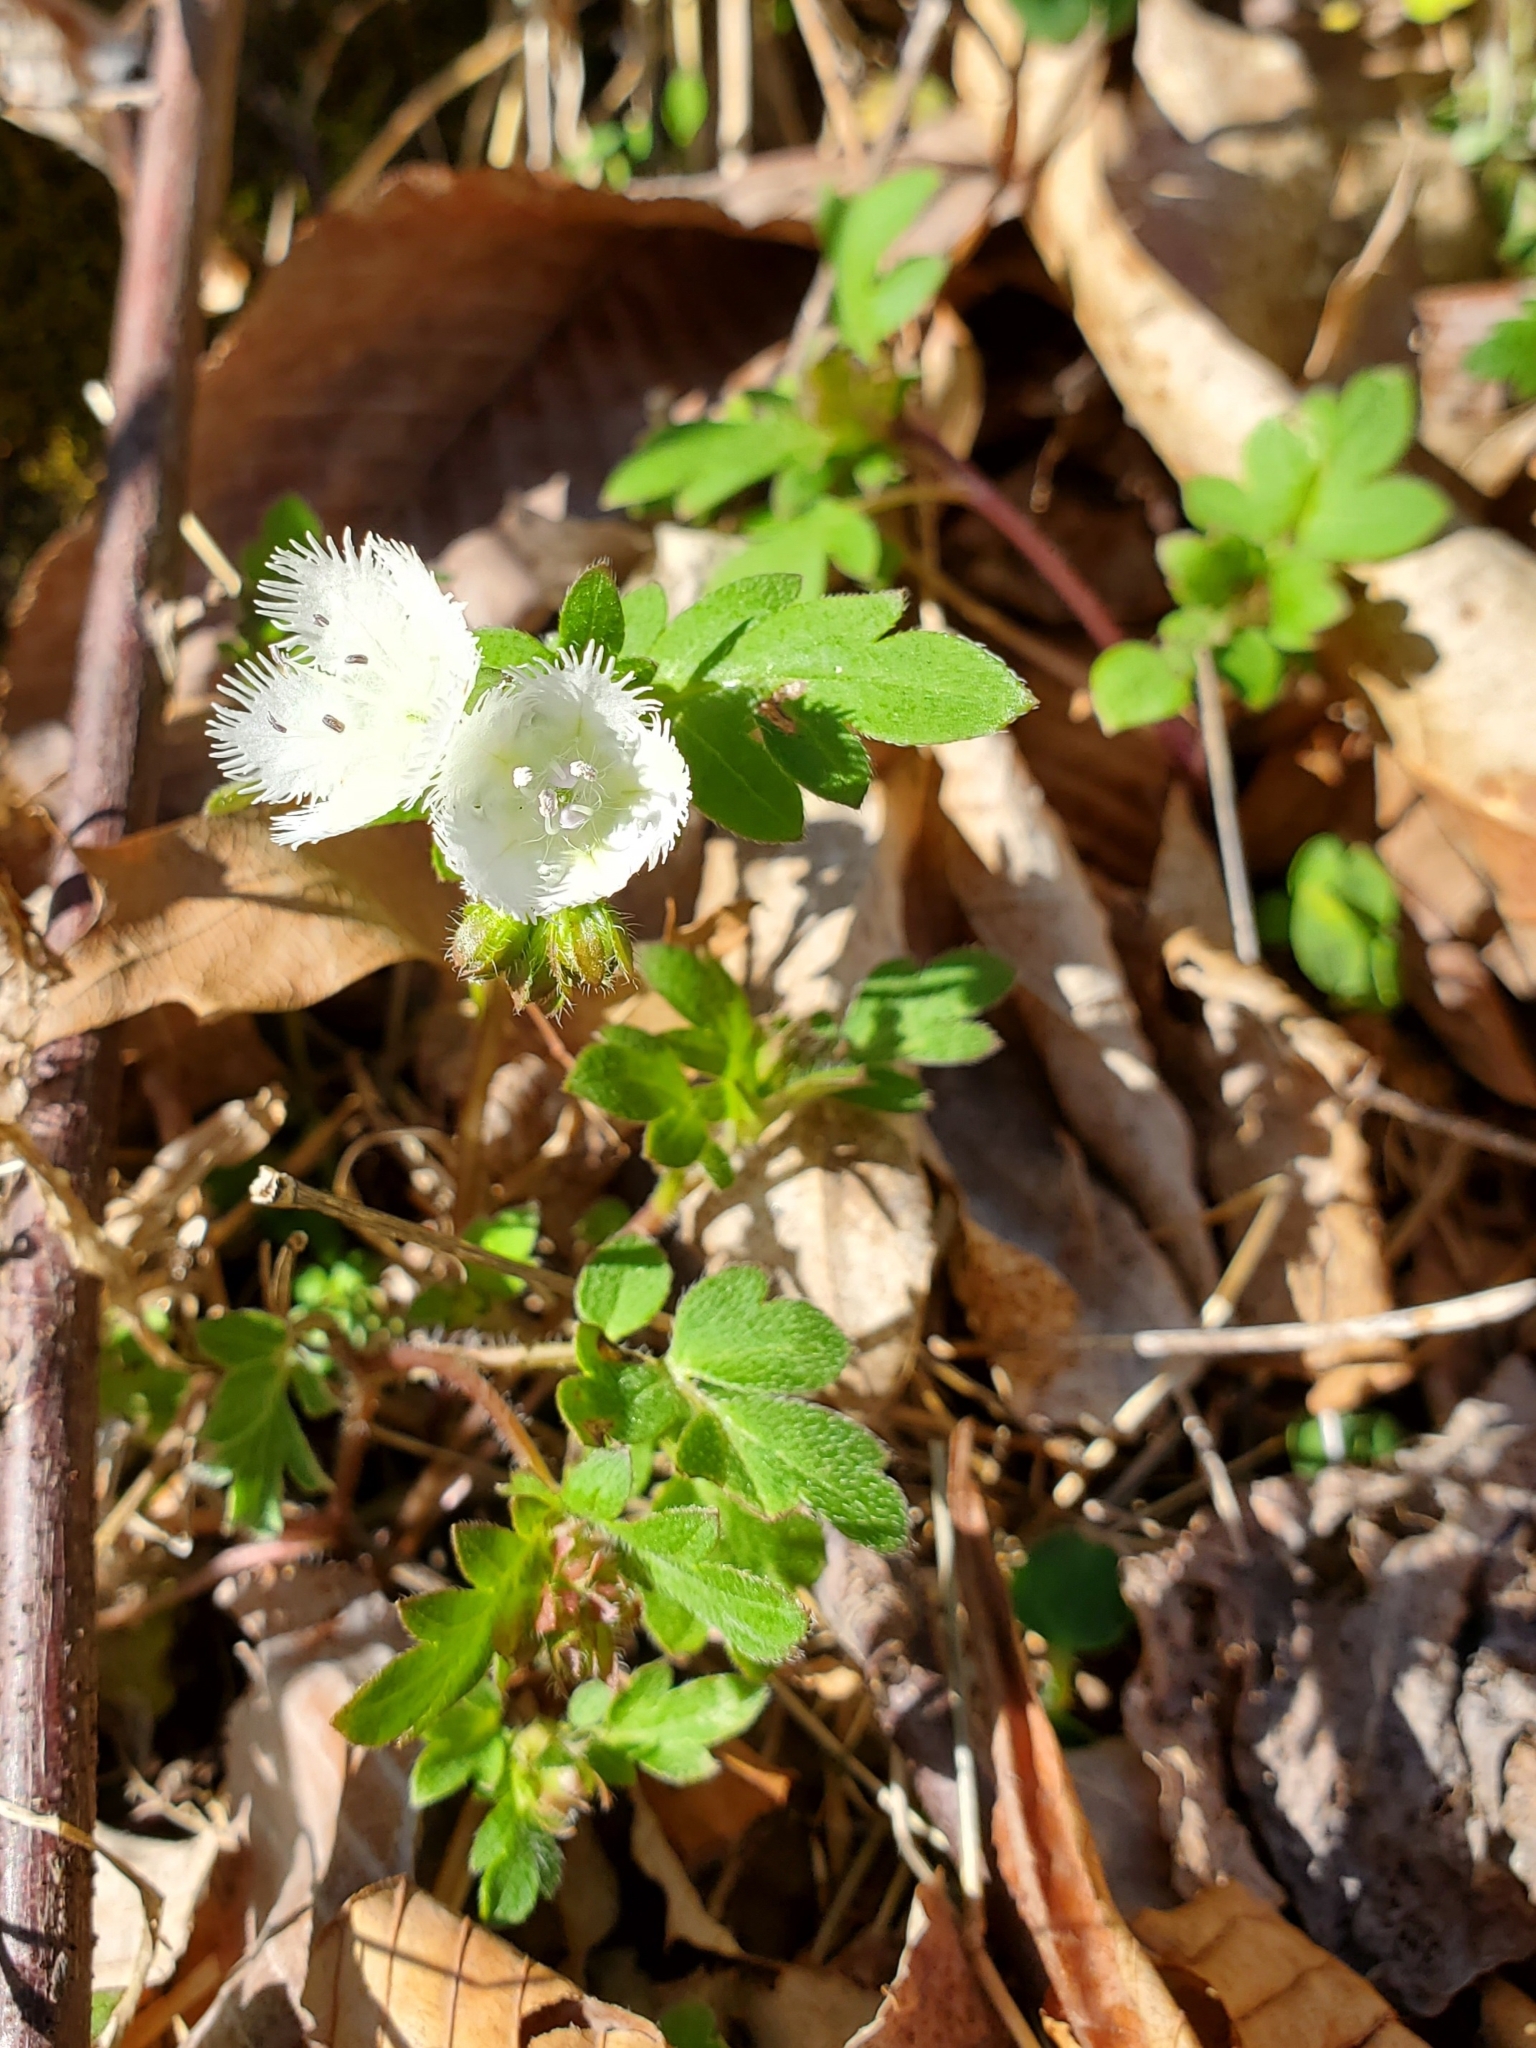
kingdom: Plantae
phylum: Tracheophyta
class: Magnoliopsida
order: Boraginales
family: Hydrophyllaceae
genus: Phacelia
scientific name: Phacelia fimbriata
